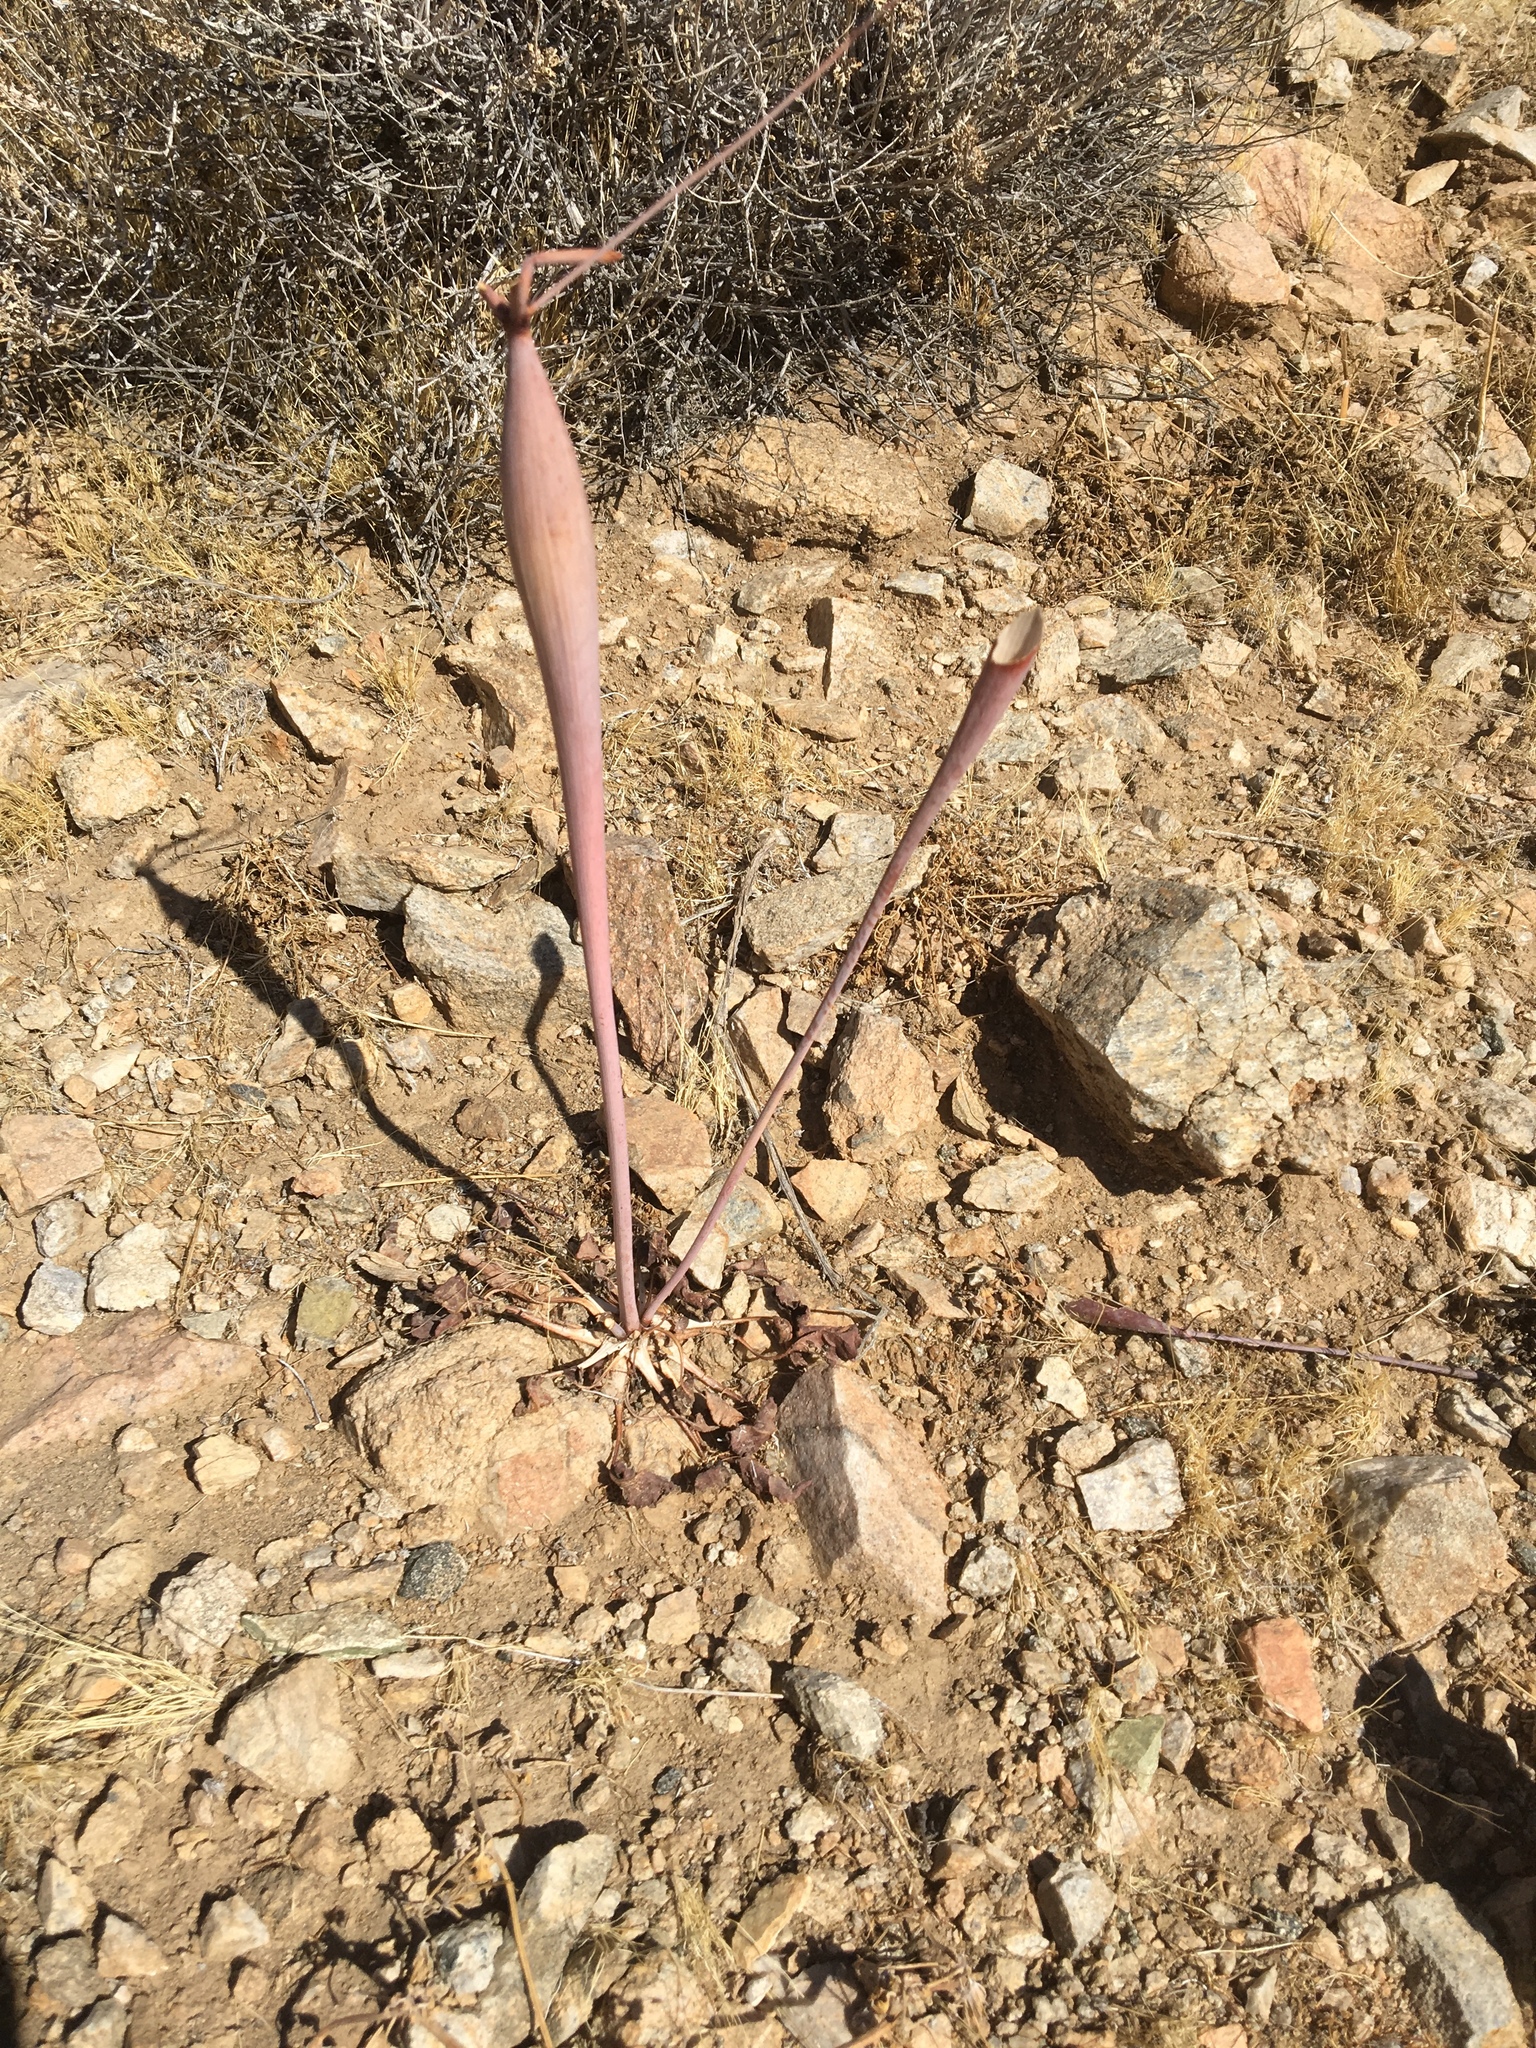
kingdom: Plantae
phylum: Tracheophyta
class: Magnoliopsida
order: Caryophyllales
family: Polygonaceae
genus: Eriogonum
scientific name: Eriogonum inflatum
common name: Desert trumpet
